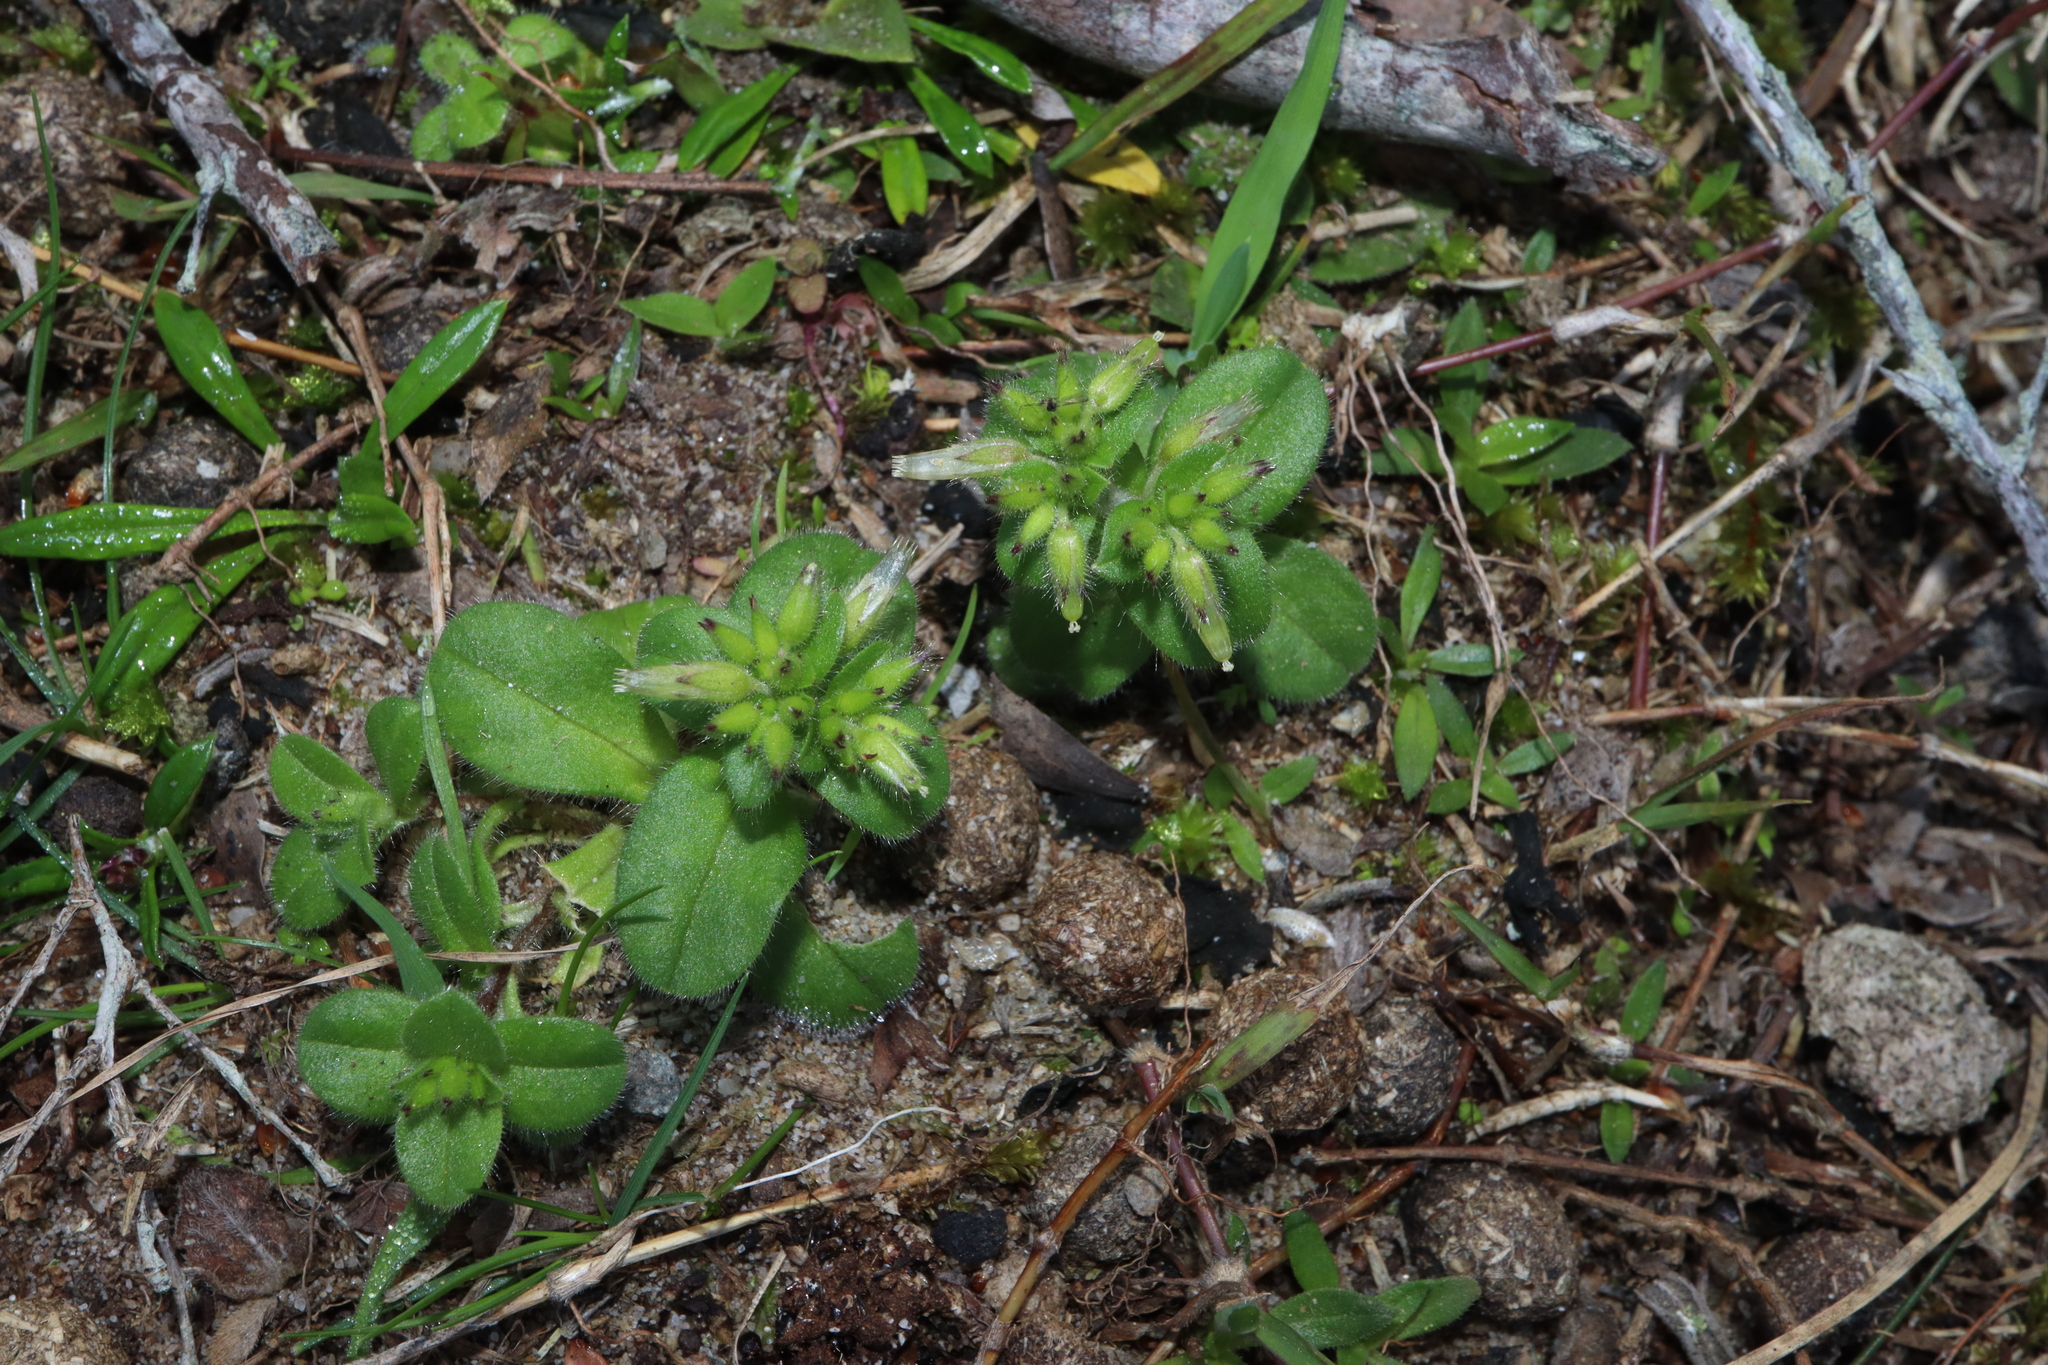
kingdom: Plantae
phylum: Tracheophyta
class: Magnoliopsida
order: Caryophyllales
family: Caryophyllaceae
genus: Cerastium
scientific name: Cerastium glomeratum
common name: Sticky chickweed
